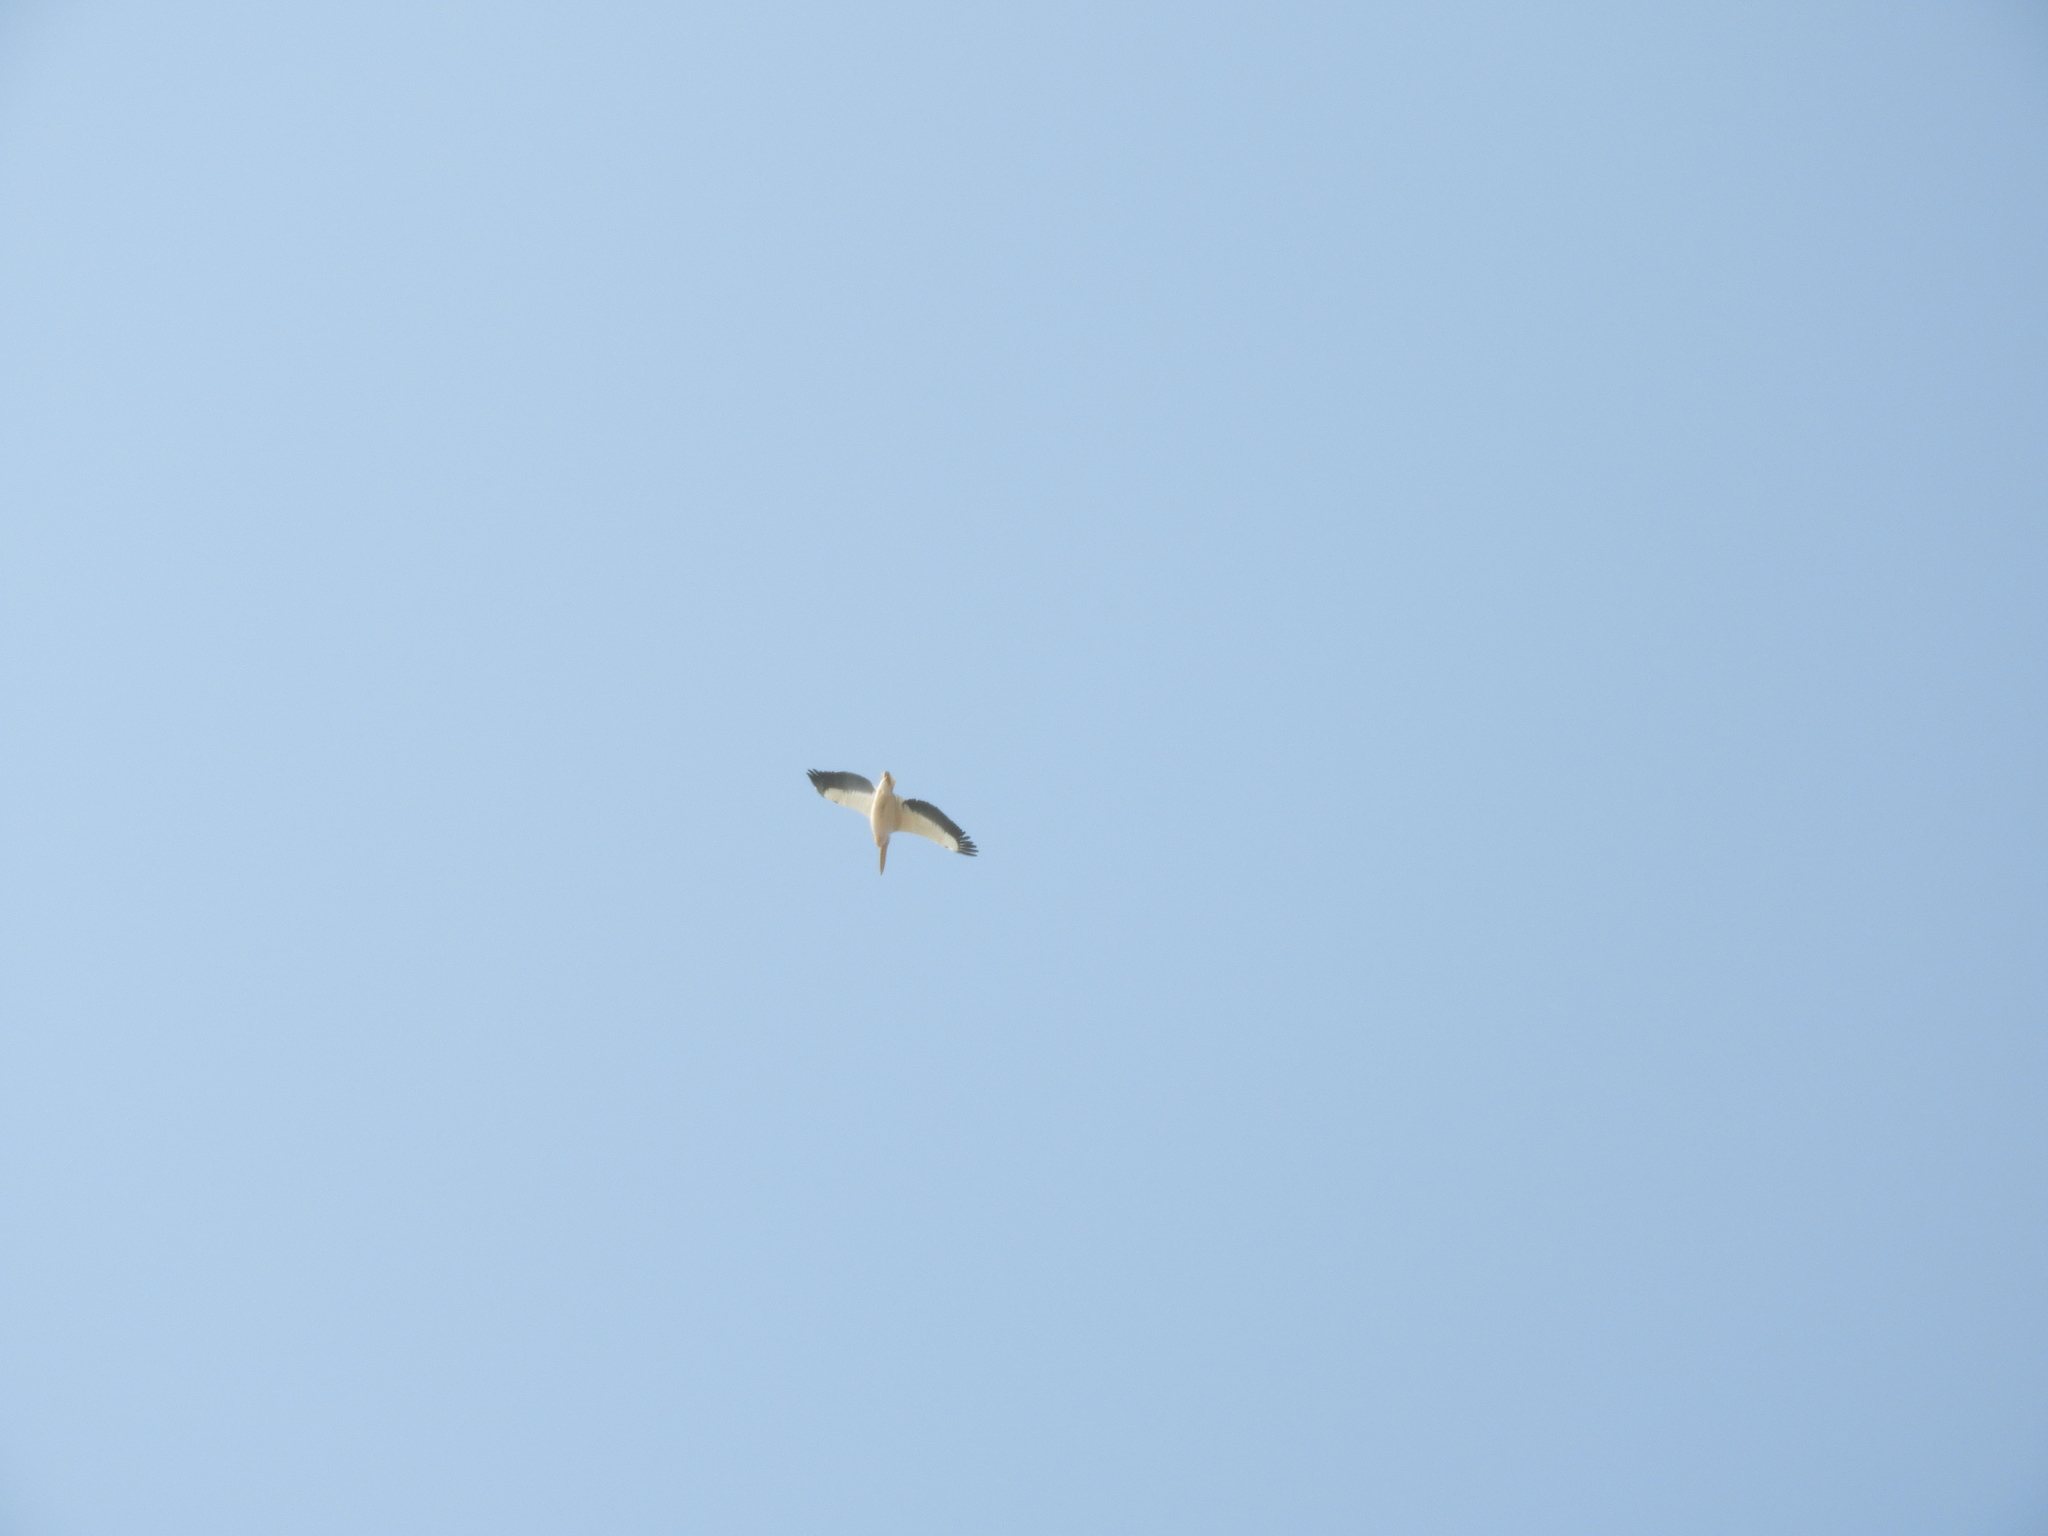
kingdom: Animalia
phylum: Chordata
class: Aves
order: Pelecaniformes
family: Pelecanidae
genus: Pelecanus
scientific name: Pelecanus onocrotalus
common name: Great white pelican
